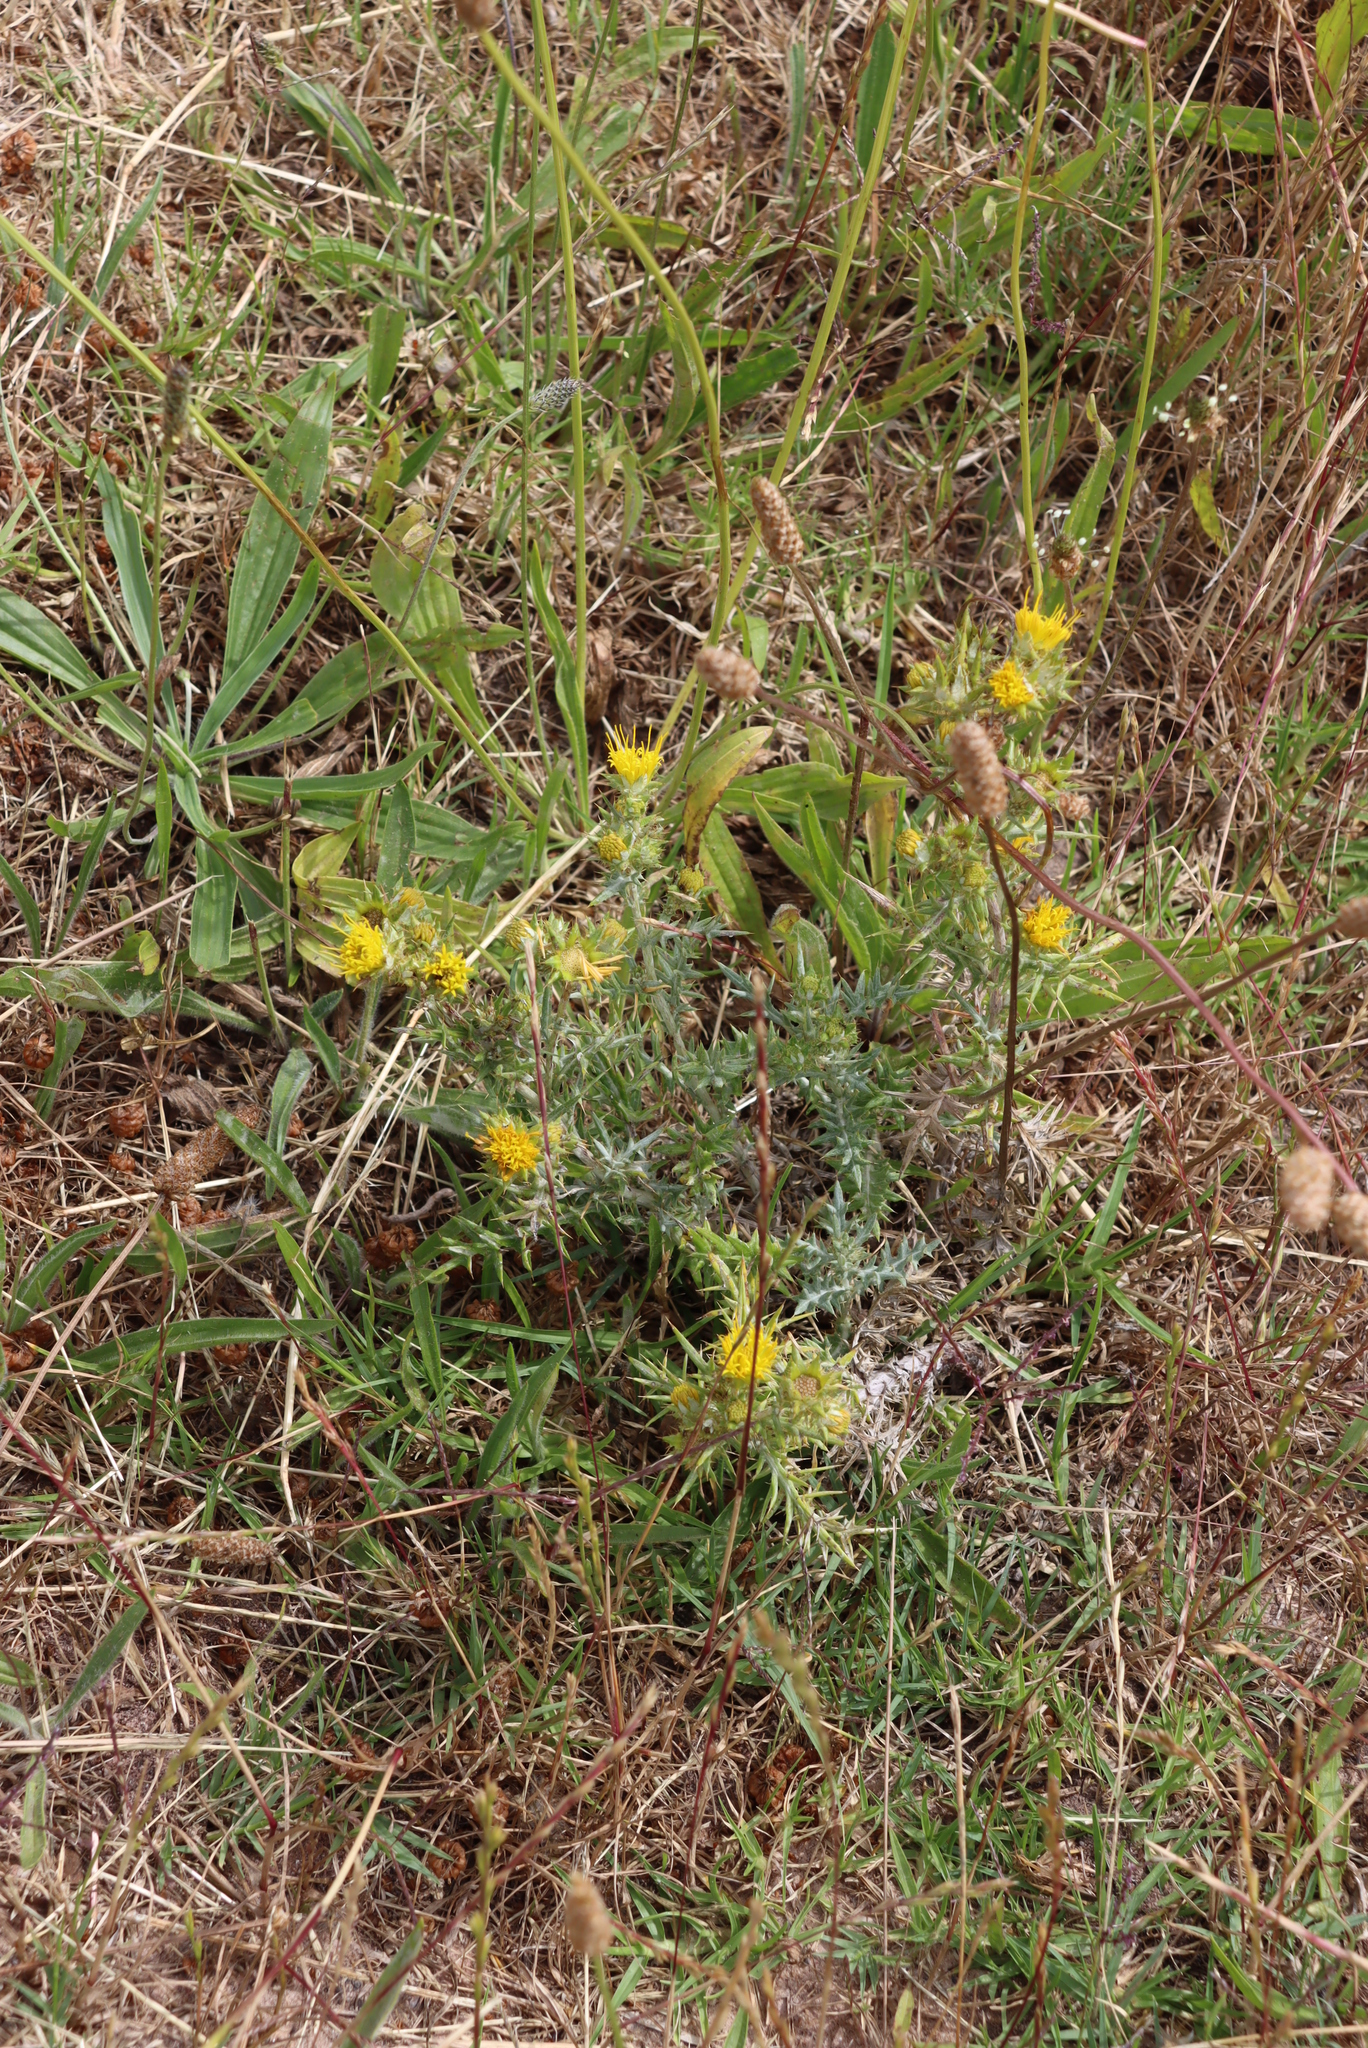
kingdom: Plantae
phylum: Tracheophyta
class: Magnoliopsida
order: Asterales
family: Asteraceae
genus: Berkheya
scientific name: Berkheya rigida
